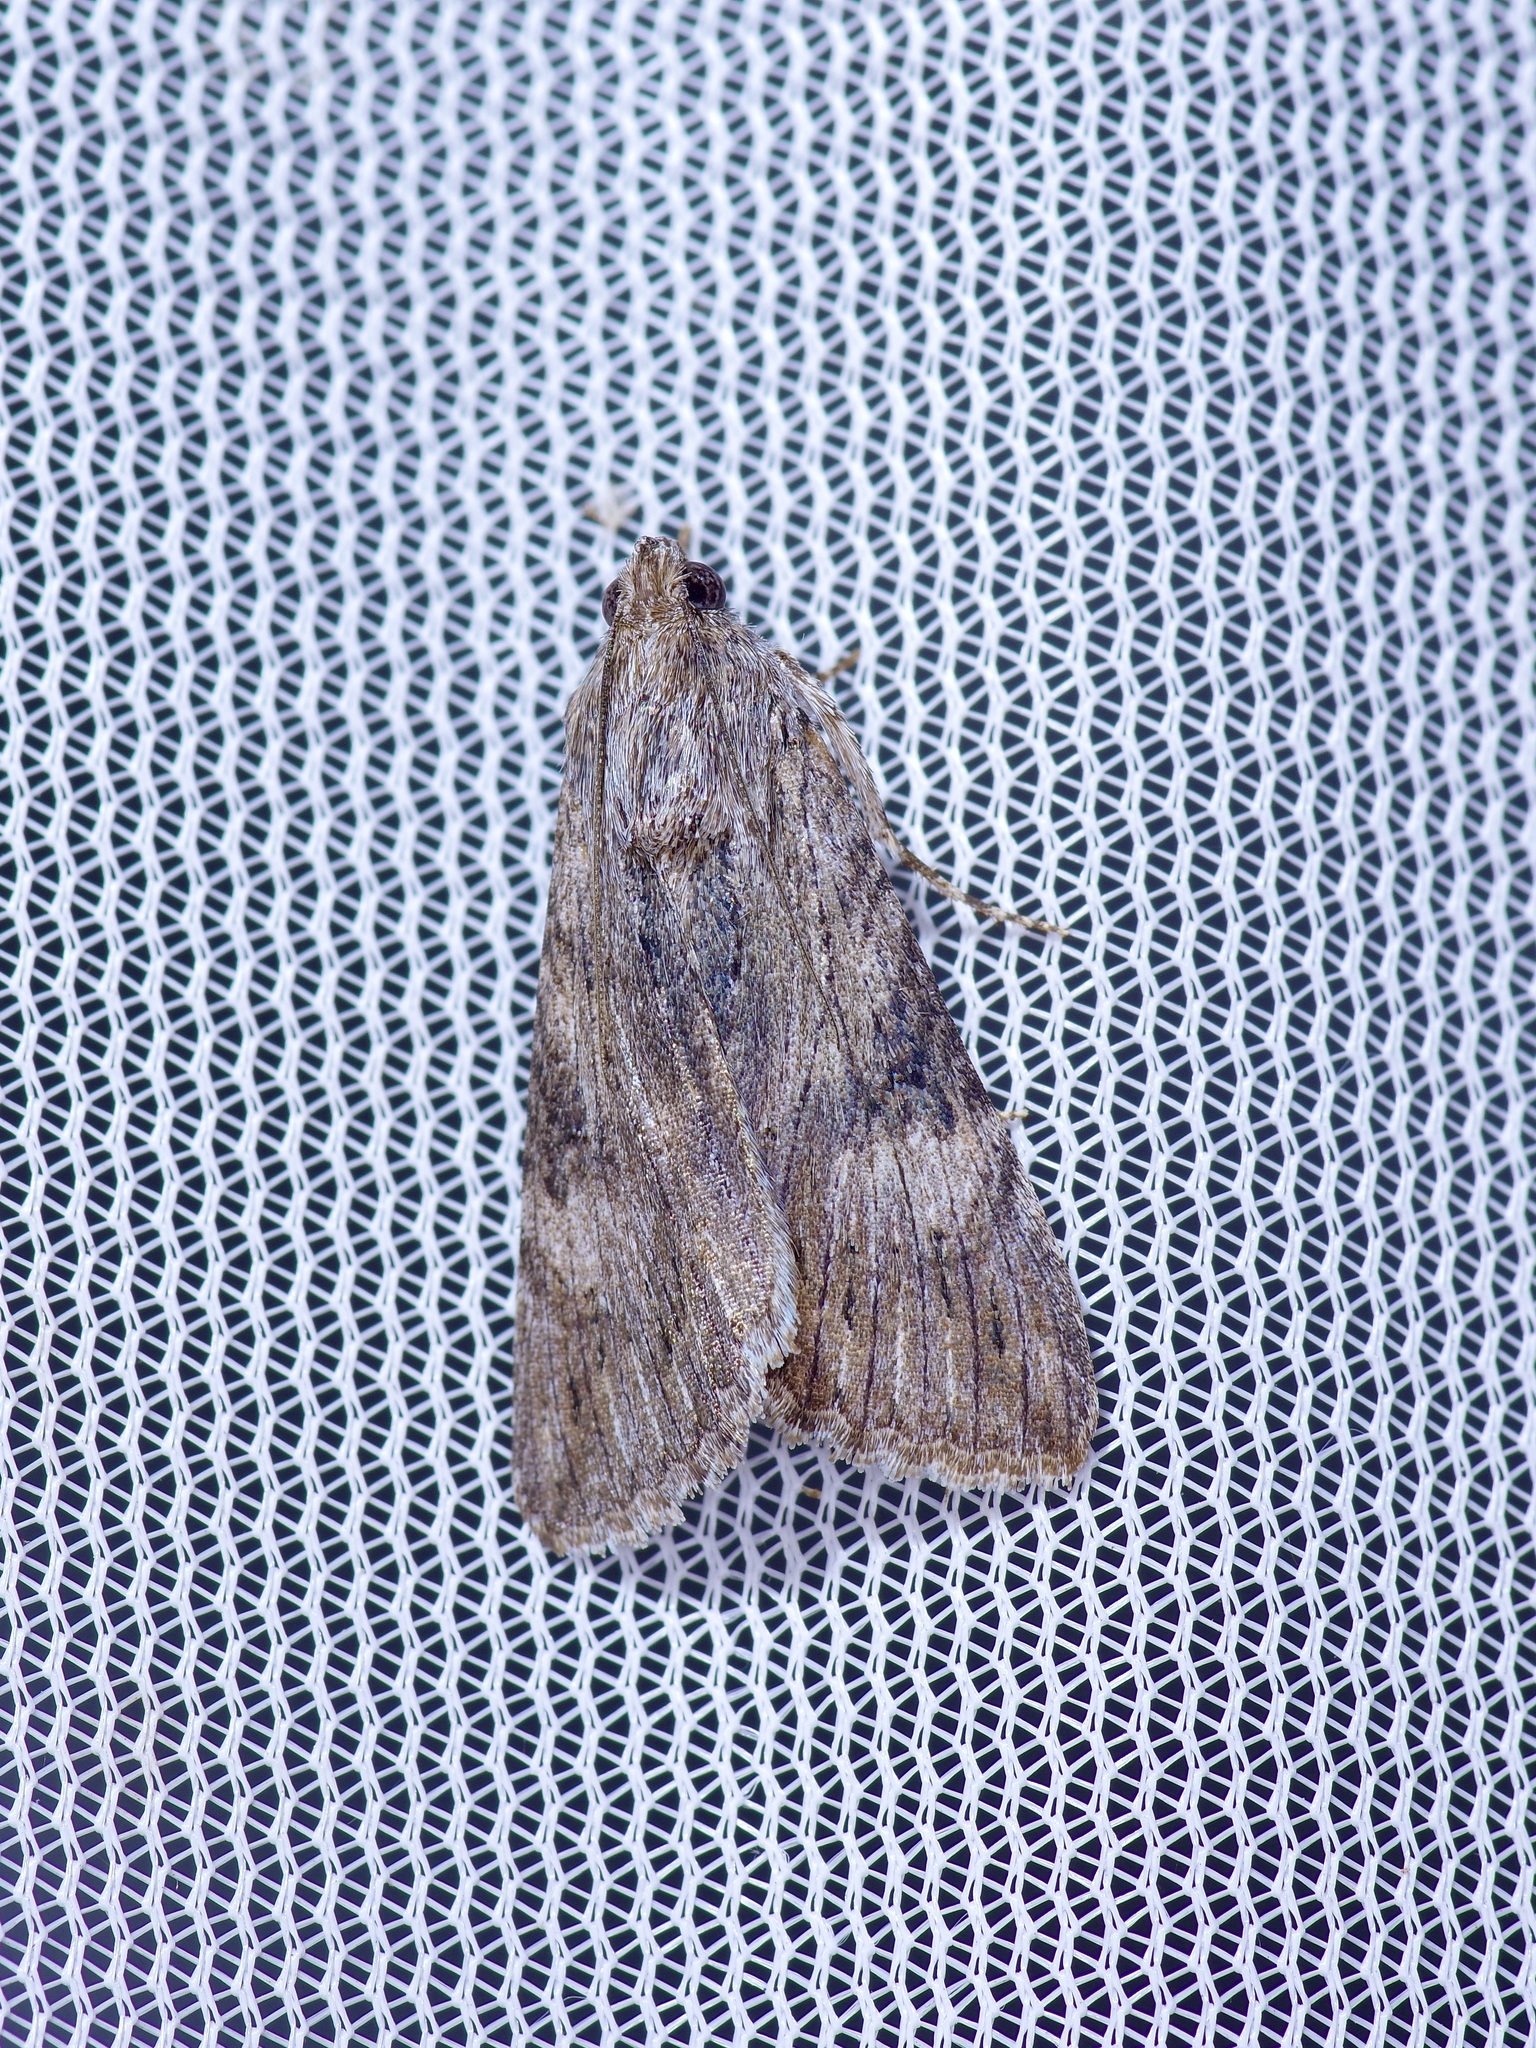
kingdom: Animalia
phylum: Arthropoda
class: Insecta
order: Lepidoptera
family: Erebidae
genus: Melipotis
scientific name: Melipotis jucunda
